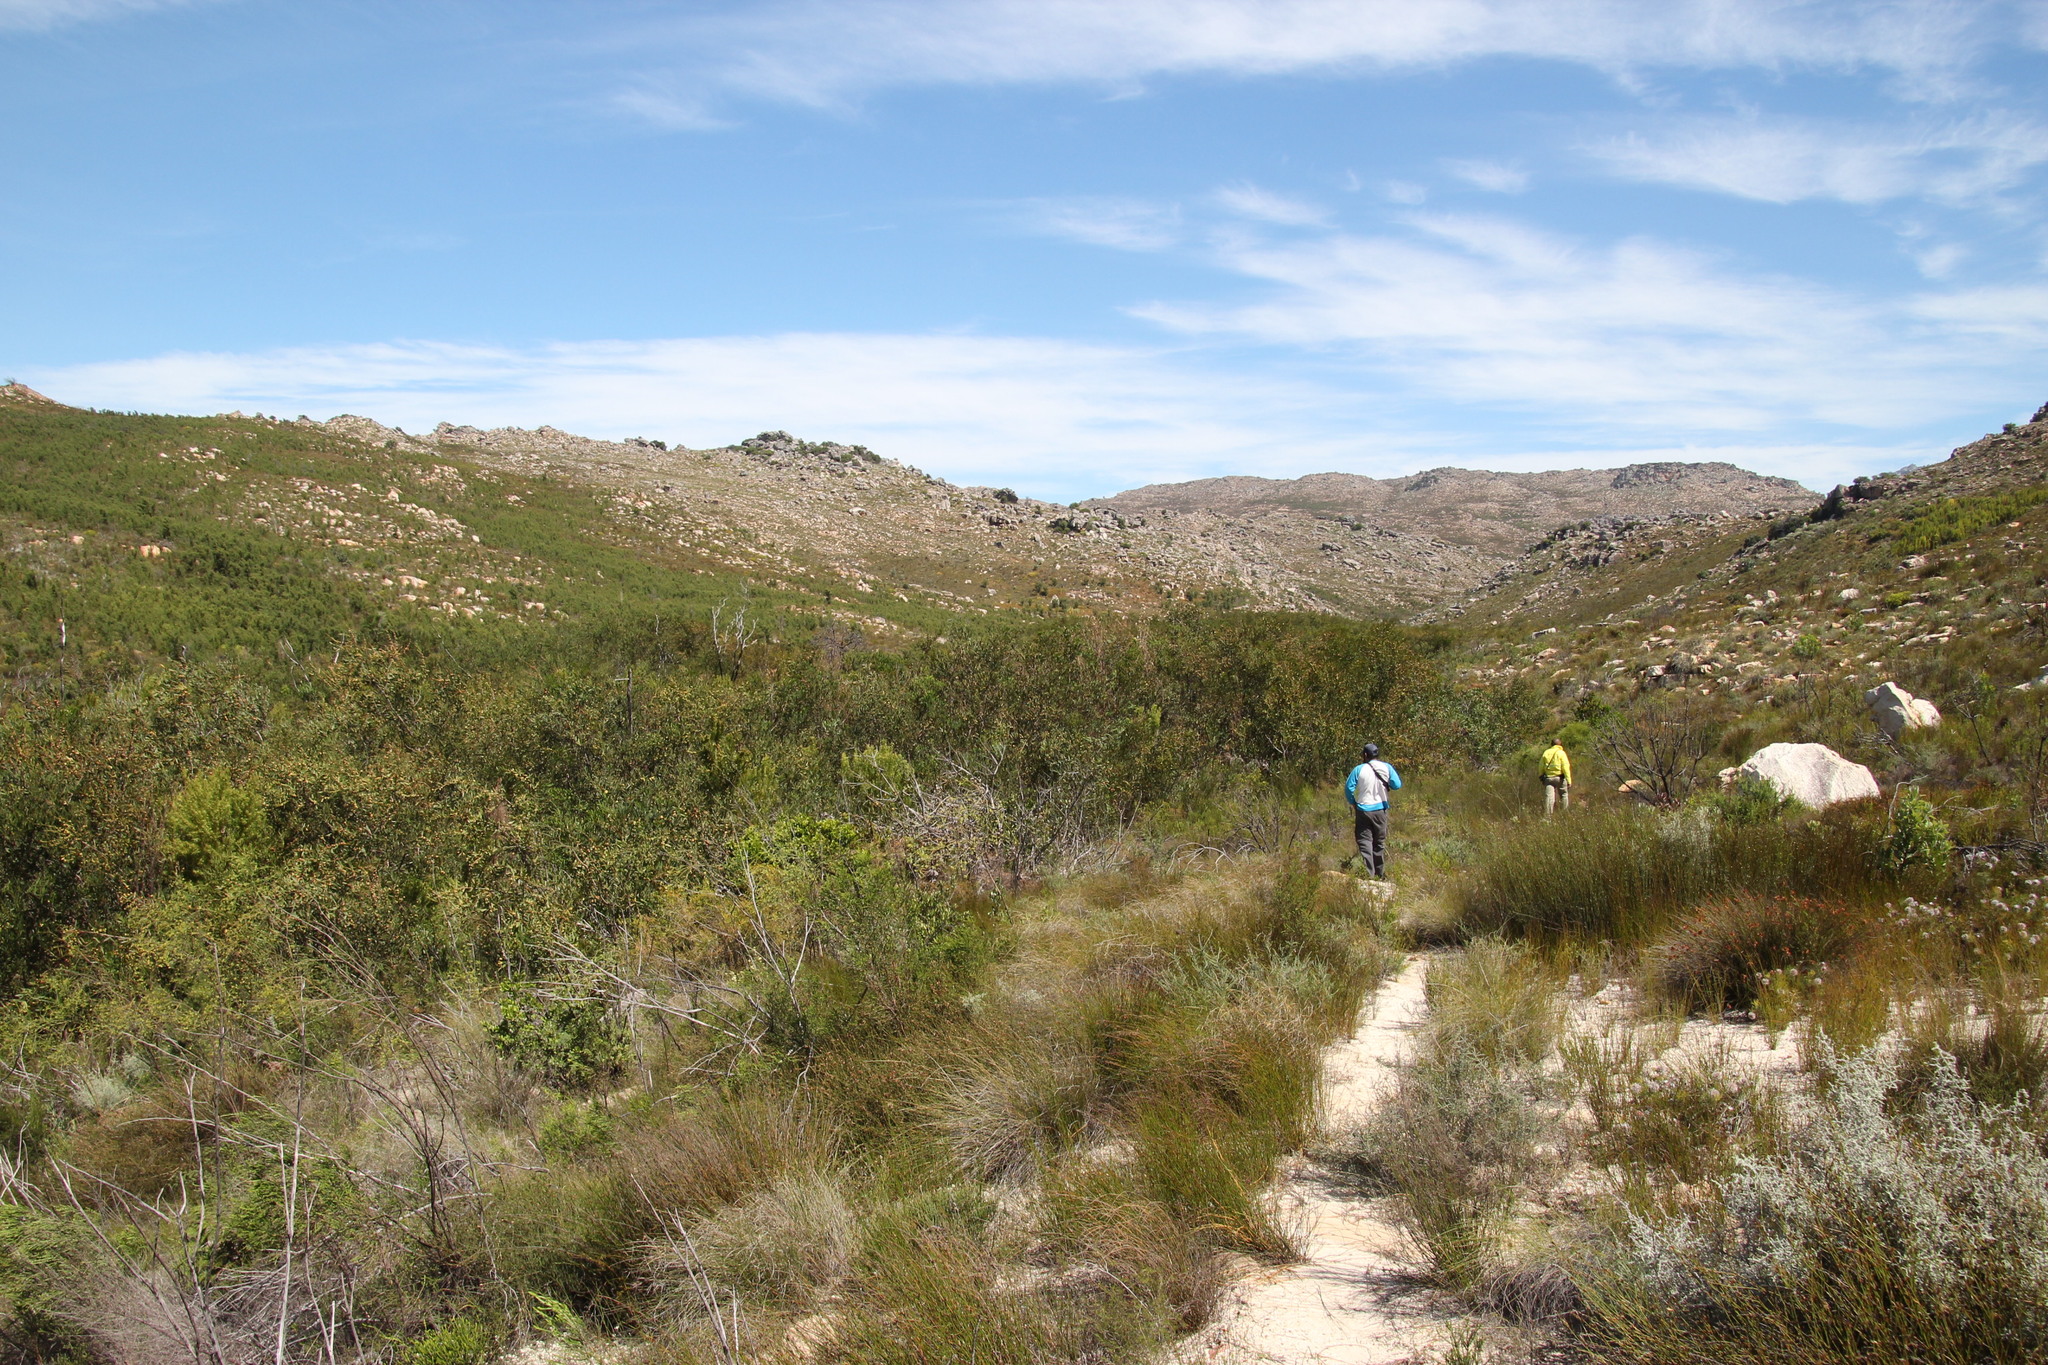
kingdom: Plantae
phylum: Tracheophyta
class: Magnoliopsida
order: Fabales
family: Fabaceae
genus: Acacia
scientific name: Acacia longifolia
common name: Sydney golden wattle
